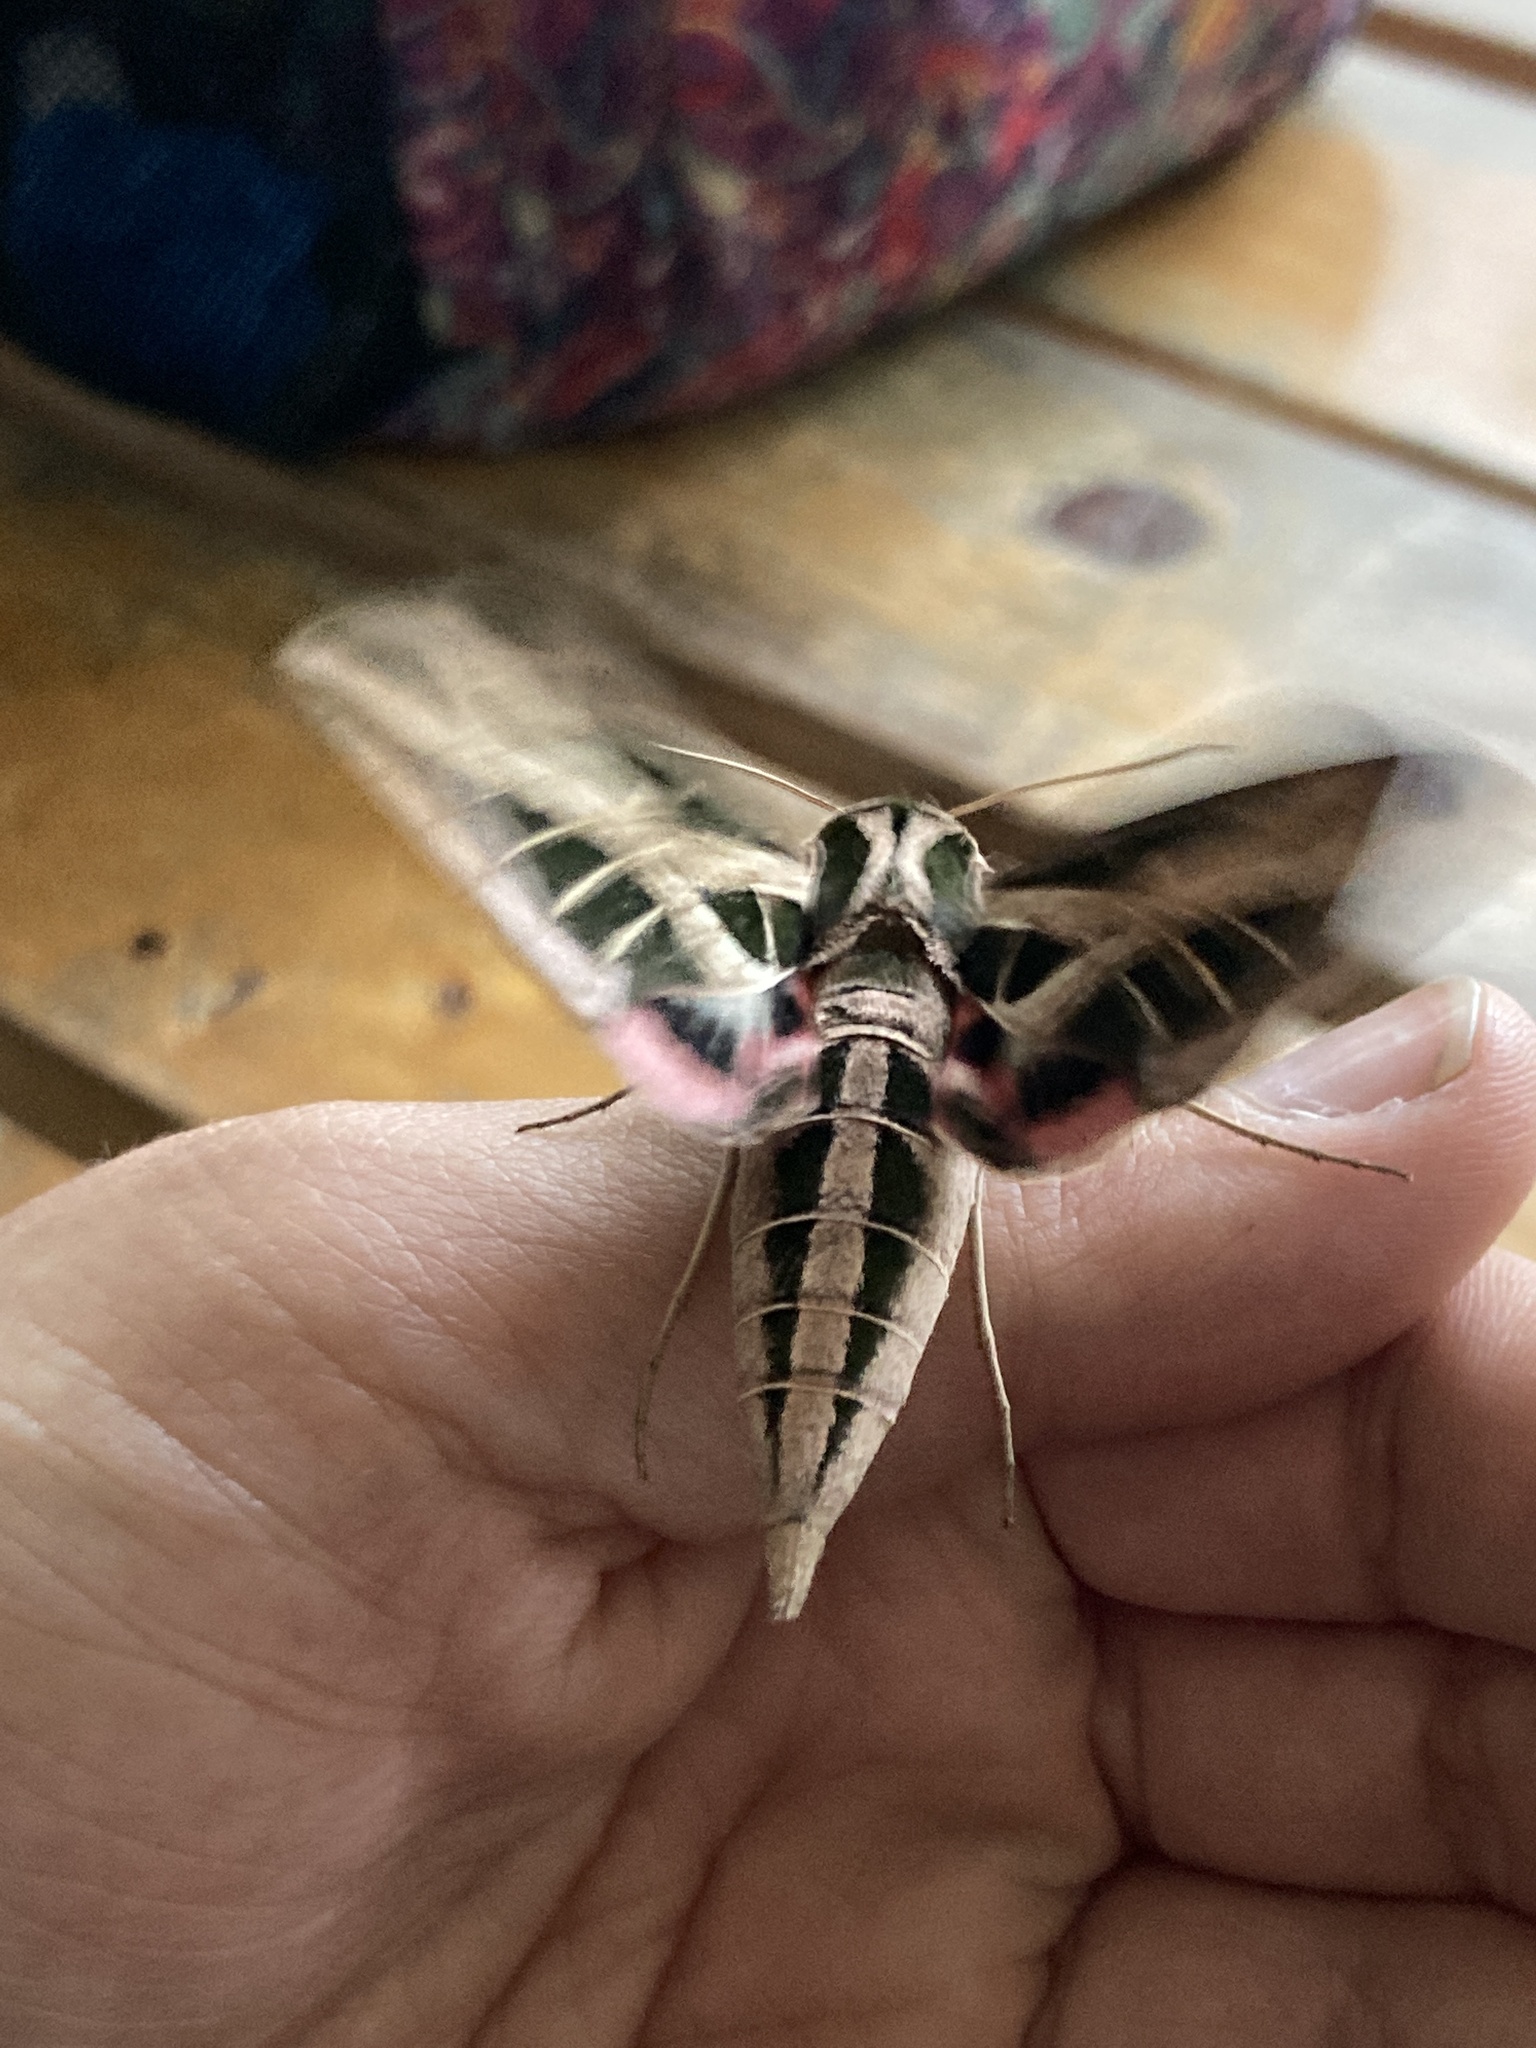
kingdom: Animalia
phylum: Arthropoda
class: Insecta
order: Lepidoptera
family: Sphingidae
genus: Eumorpha
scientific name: Eumorpha fasciatus
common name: Banded sphinx
